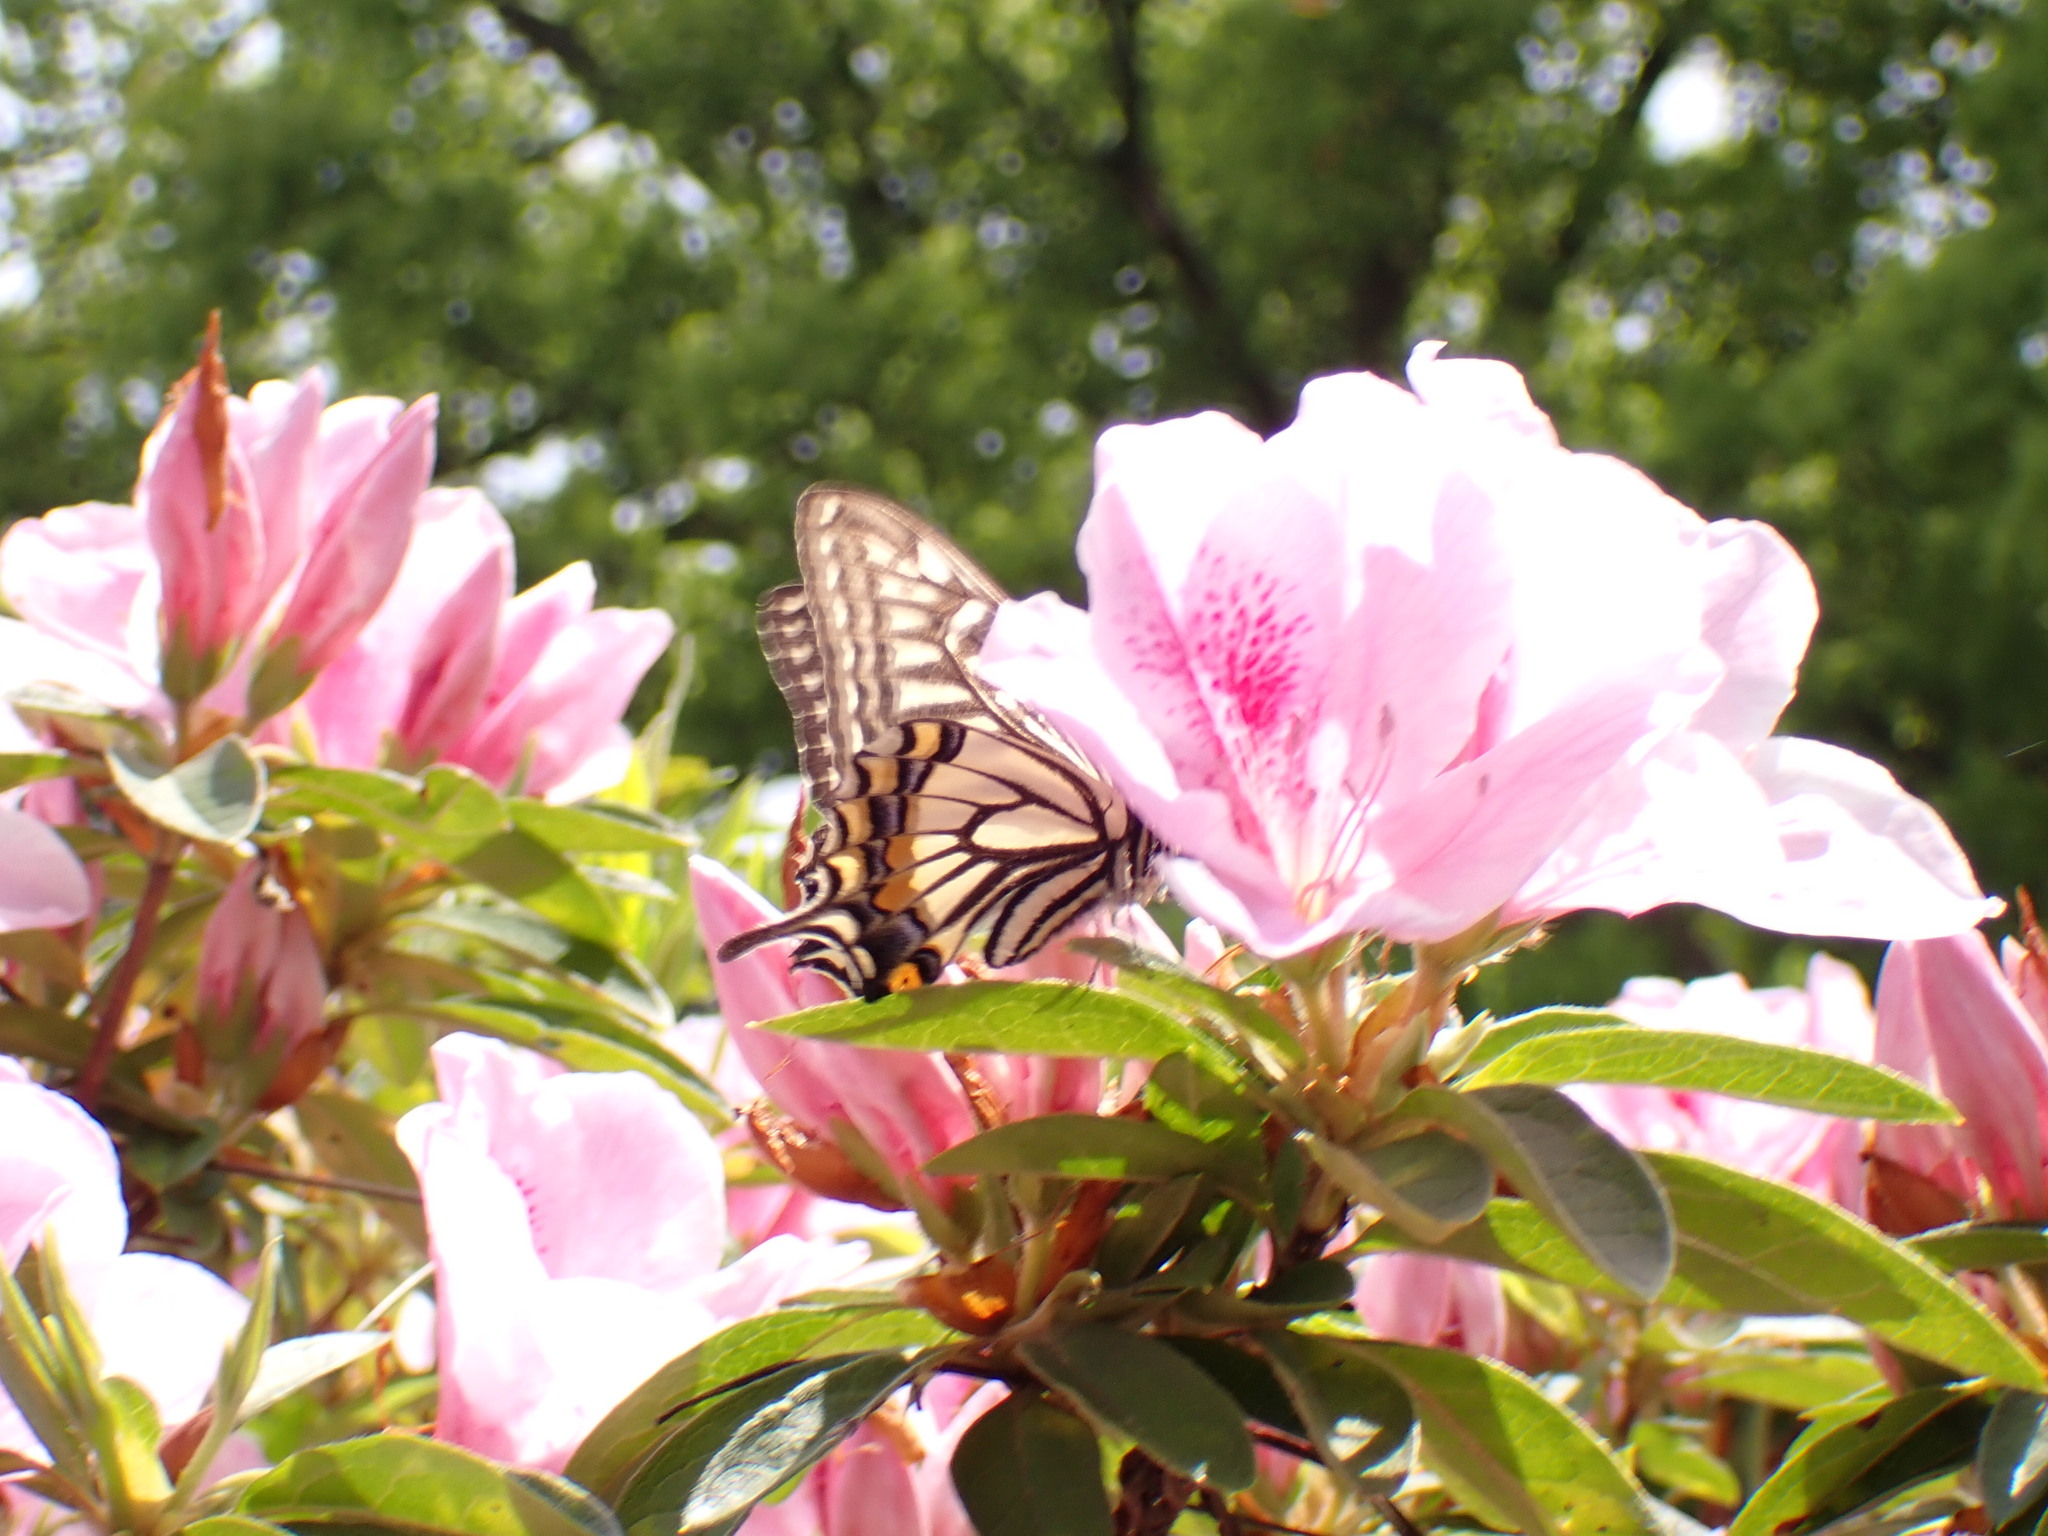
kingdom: Animalia
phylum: Arthropoda
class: Insecta
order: Lepidoptera
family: Papilionidae
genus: Papilio
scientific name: Papilio xuthus
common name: Asian swallowtail
